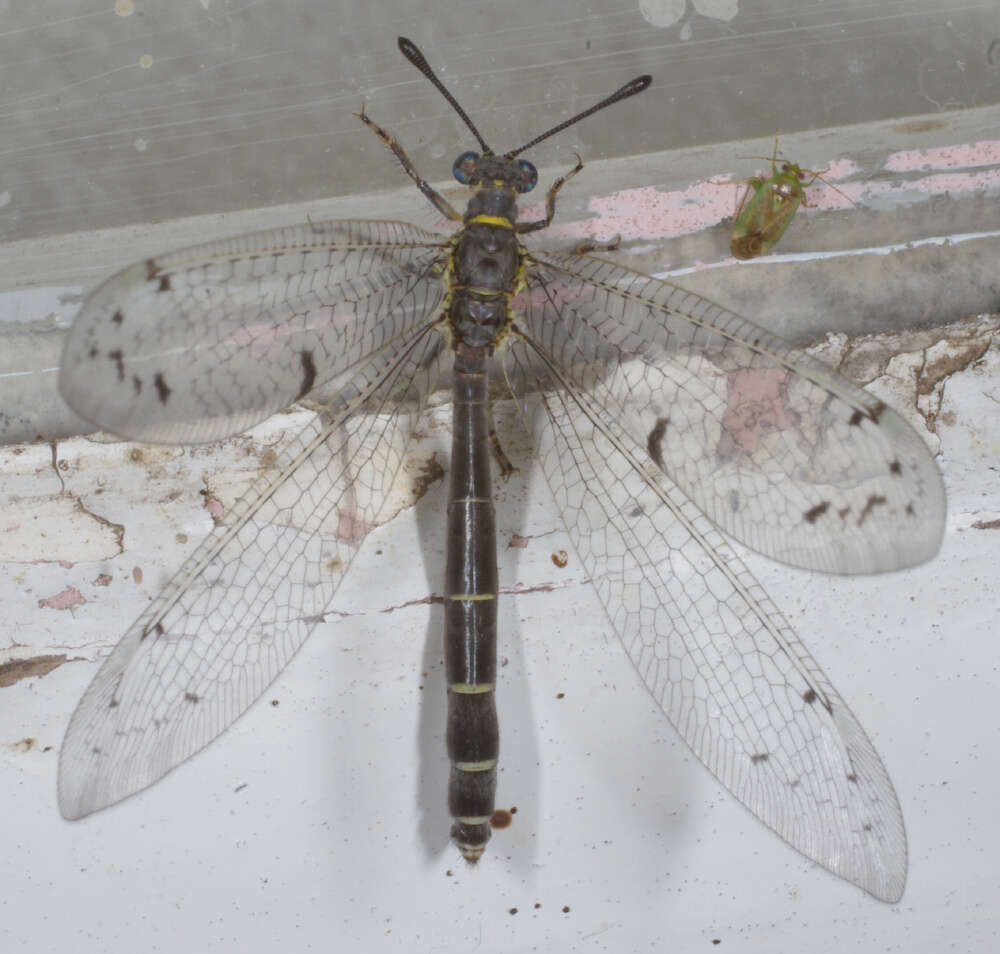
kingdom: Animalia
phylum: Arthropoda
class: Insecta
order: Neuroptera
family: Myrmeleontidae
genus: Bandidus
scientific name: Bandidus canifrons
